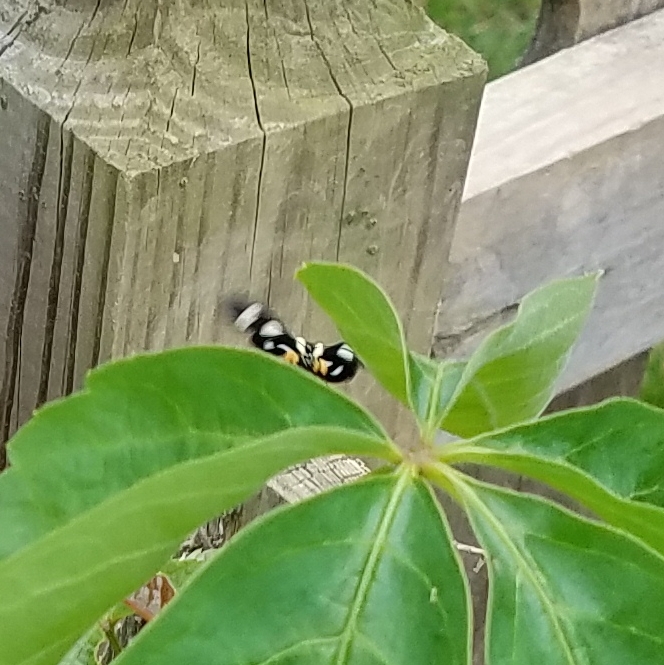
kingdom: Animalia
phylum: Arthropoda
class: Insecta
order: Lepidoptera
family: Noctuidae
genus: Alypia
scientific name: Alypia octomaculata
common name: Eight-spotted forester
